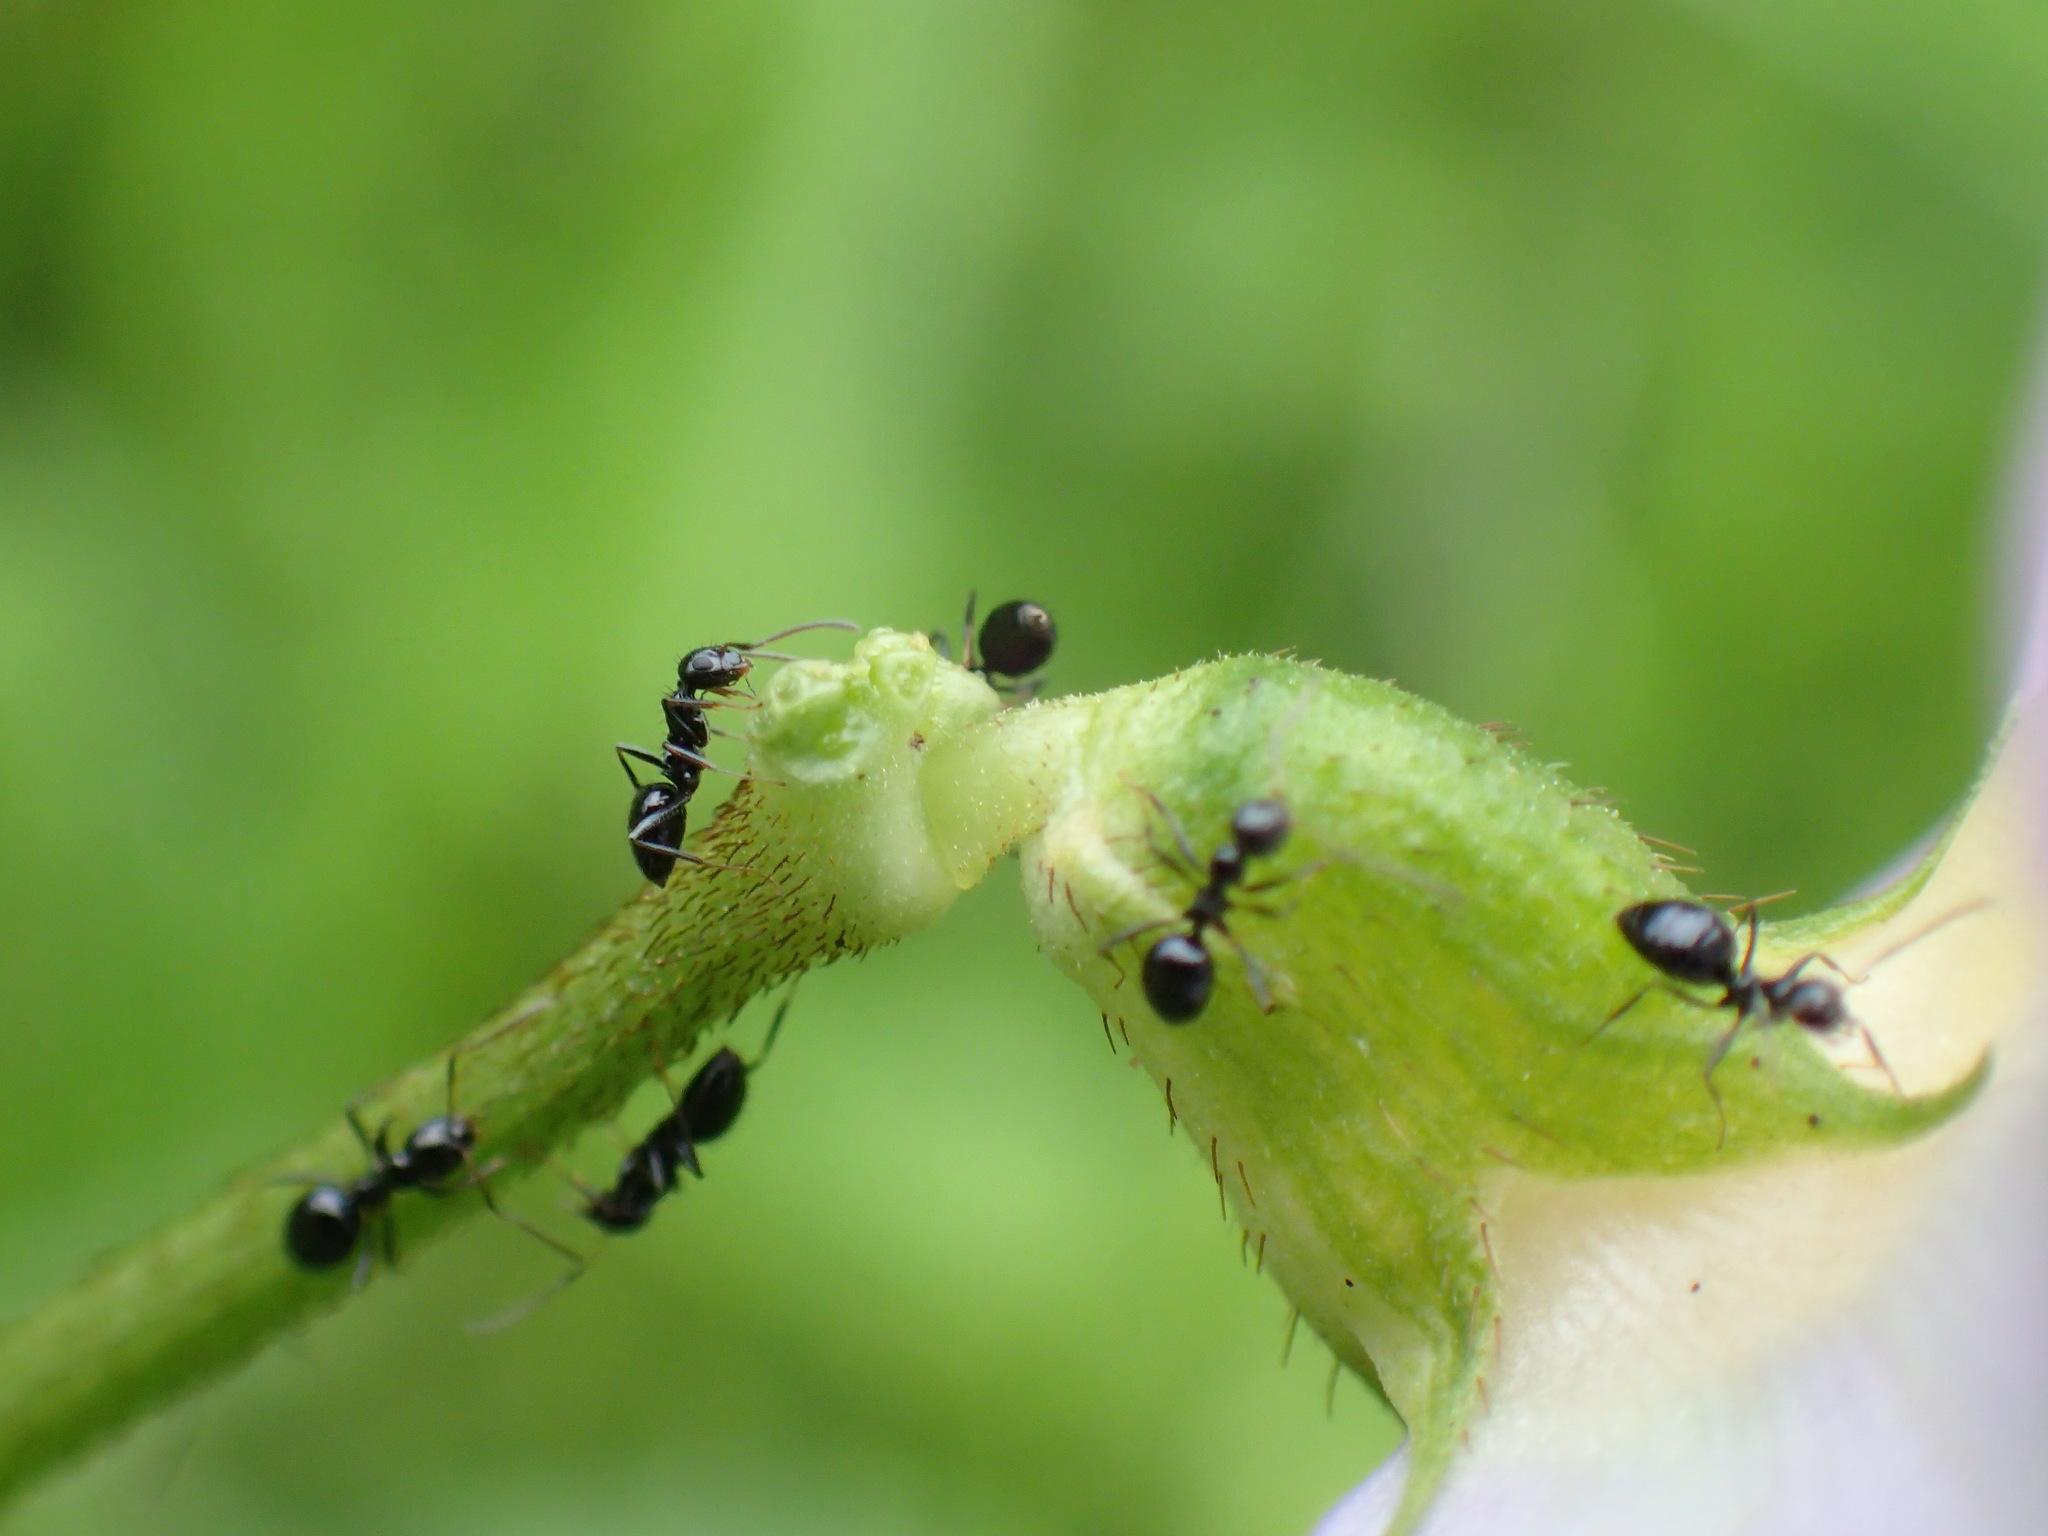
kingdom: Animalia
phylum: Arthropoda
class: Insecta
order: Hymenoptera
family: Formicidae
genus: Lepisiota
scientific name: Lepisiota capensis
